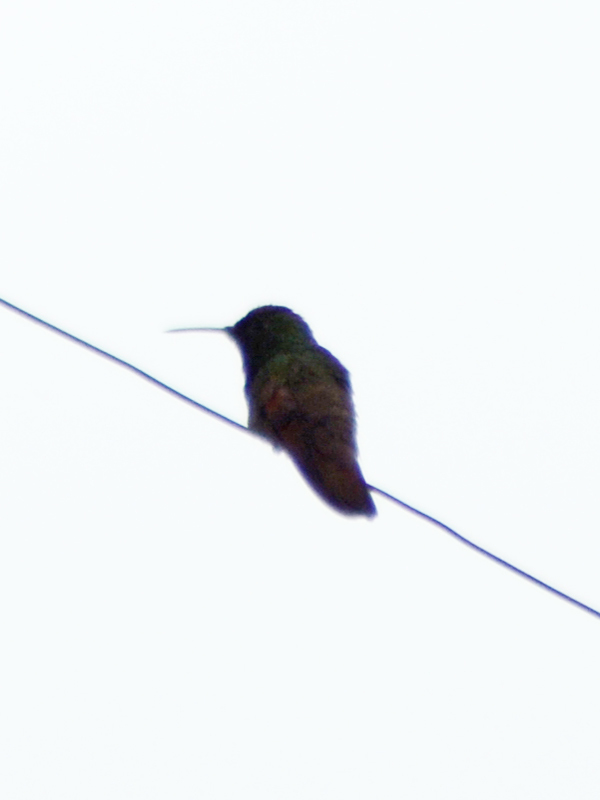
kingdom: Animalia
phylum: Chordata
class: Aves
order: Apodiformes
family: Trochilidae
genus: Saucerottia
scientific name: Saucerottia beryllina
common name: Berylline hummingbird
